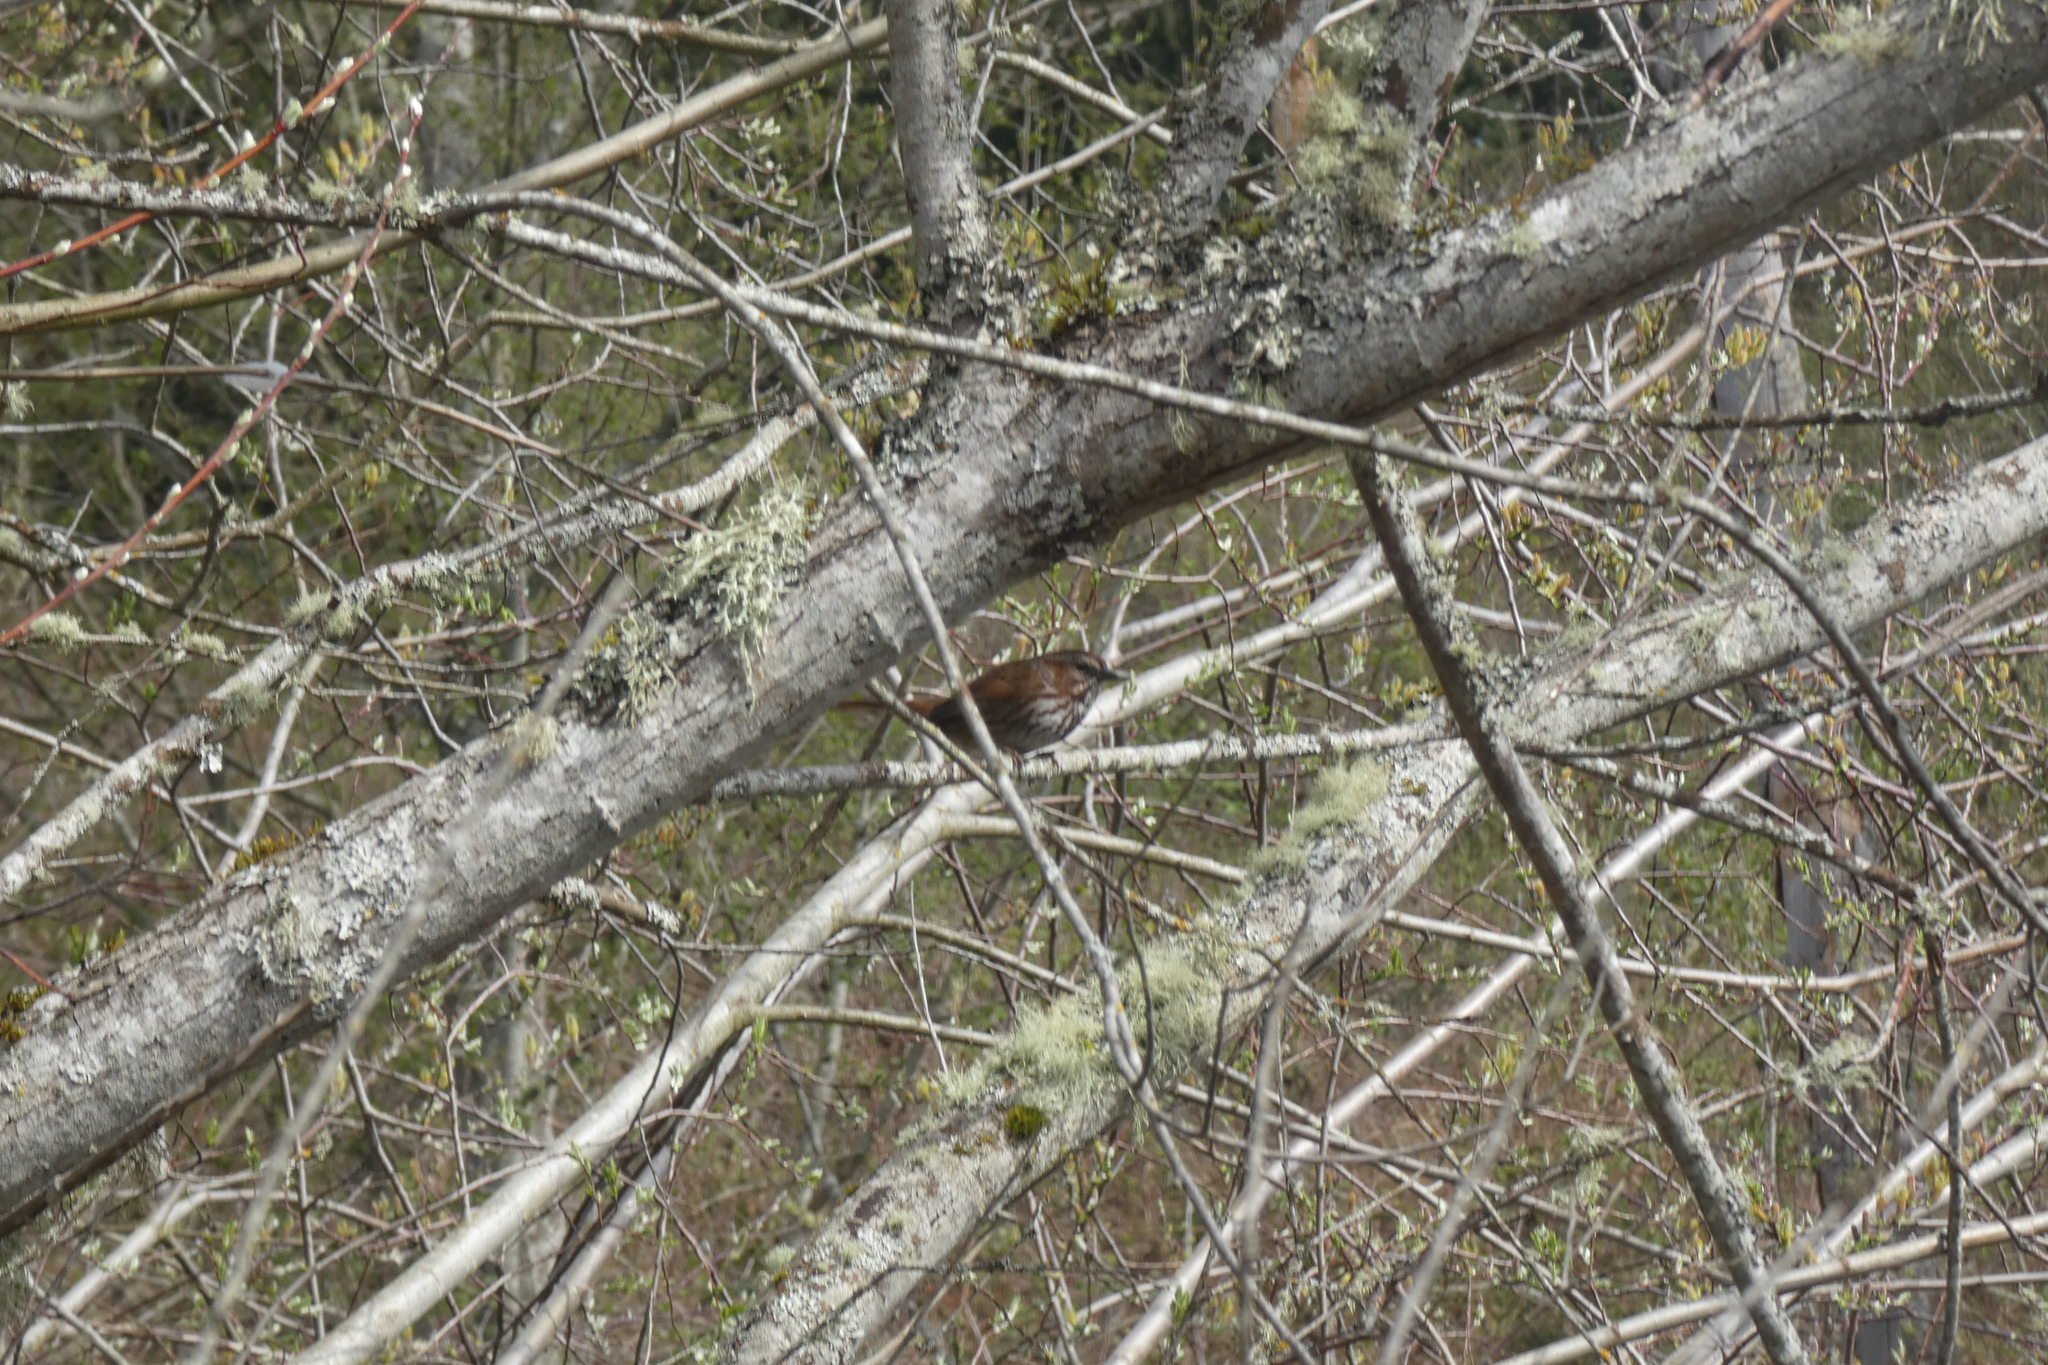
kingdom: Animalia
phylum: Chordata
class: Aves
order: Passeriformes
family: Passerellidae
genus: Melospiza
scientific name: Melospiza melodia
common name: Song sparrow
